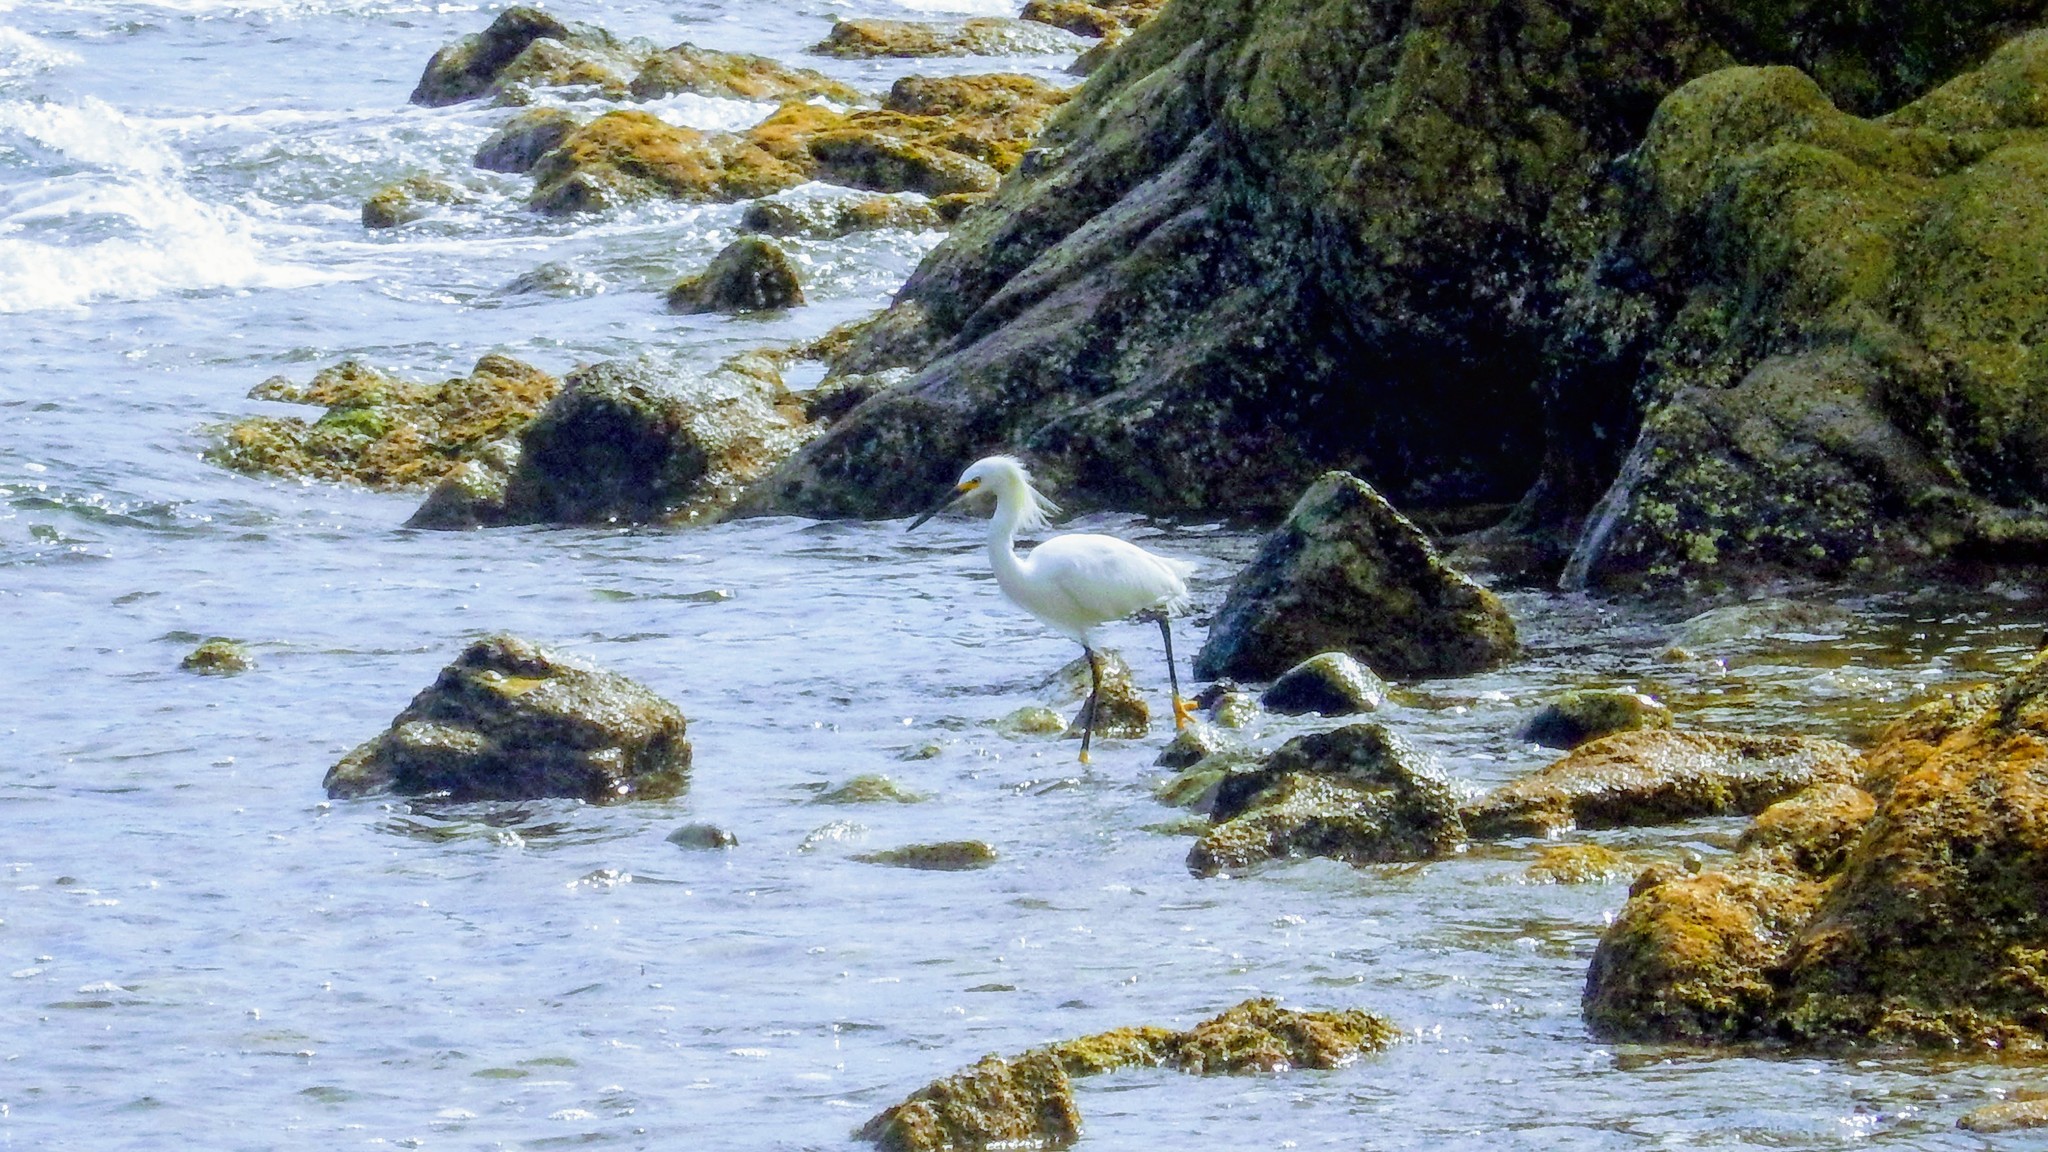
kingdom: Animalia
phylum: Chordata
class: Aves
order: Pelecaniformes
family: Ardeidae
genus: Egretta
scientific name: Egretta thula
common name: Snowy egret
